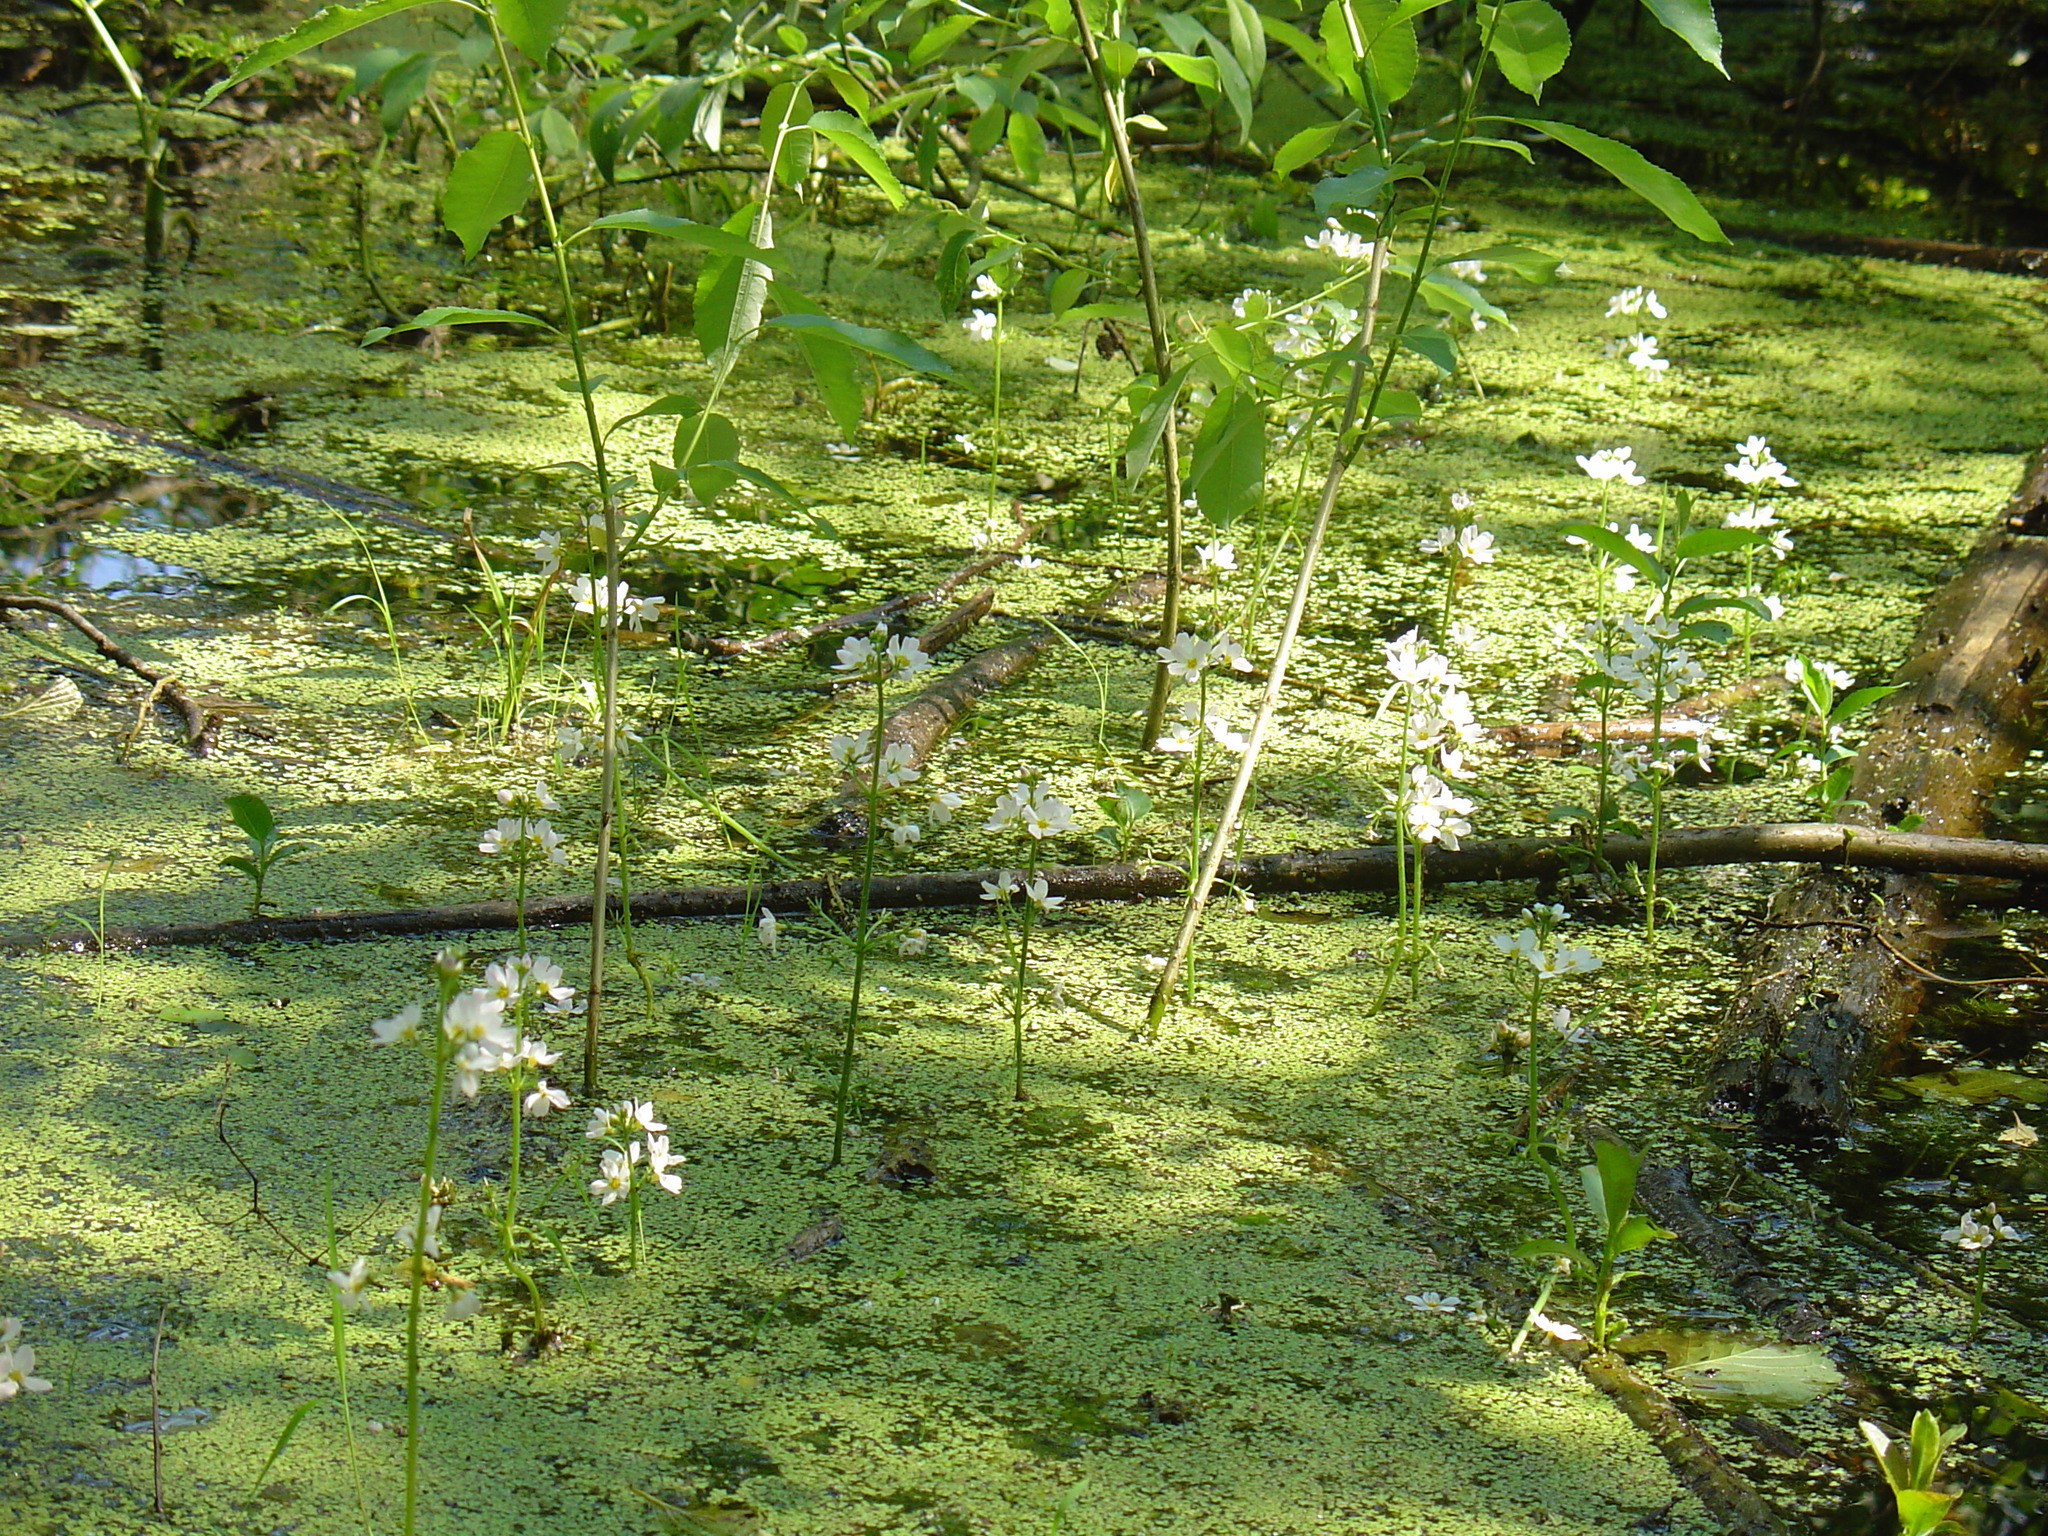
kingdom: Plantae
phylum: Tracheophyta
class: Magnoliopsida
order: Ericales
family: Primulaceae
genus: Hottonia
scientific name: Hottonia palustris
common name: Water-violet
